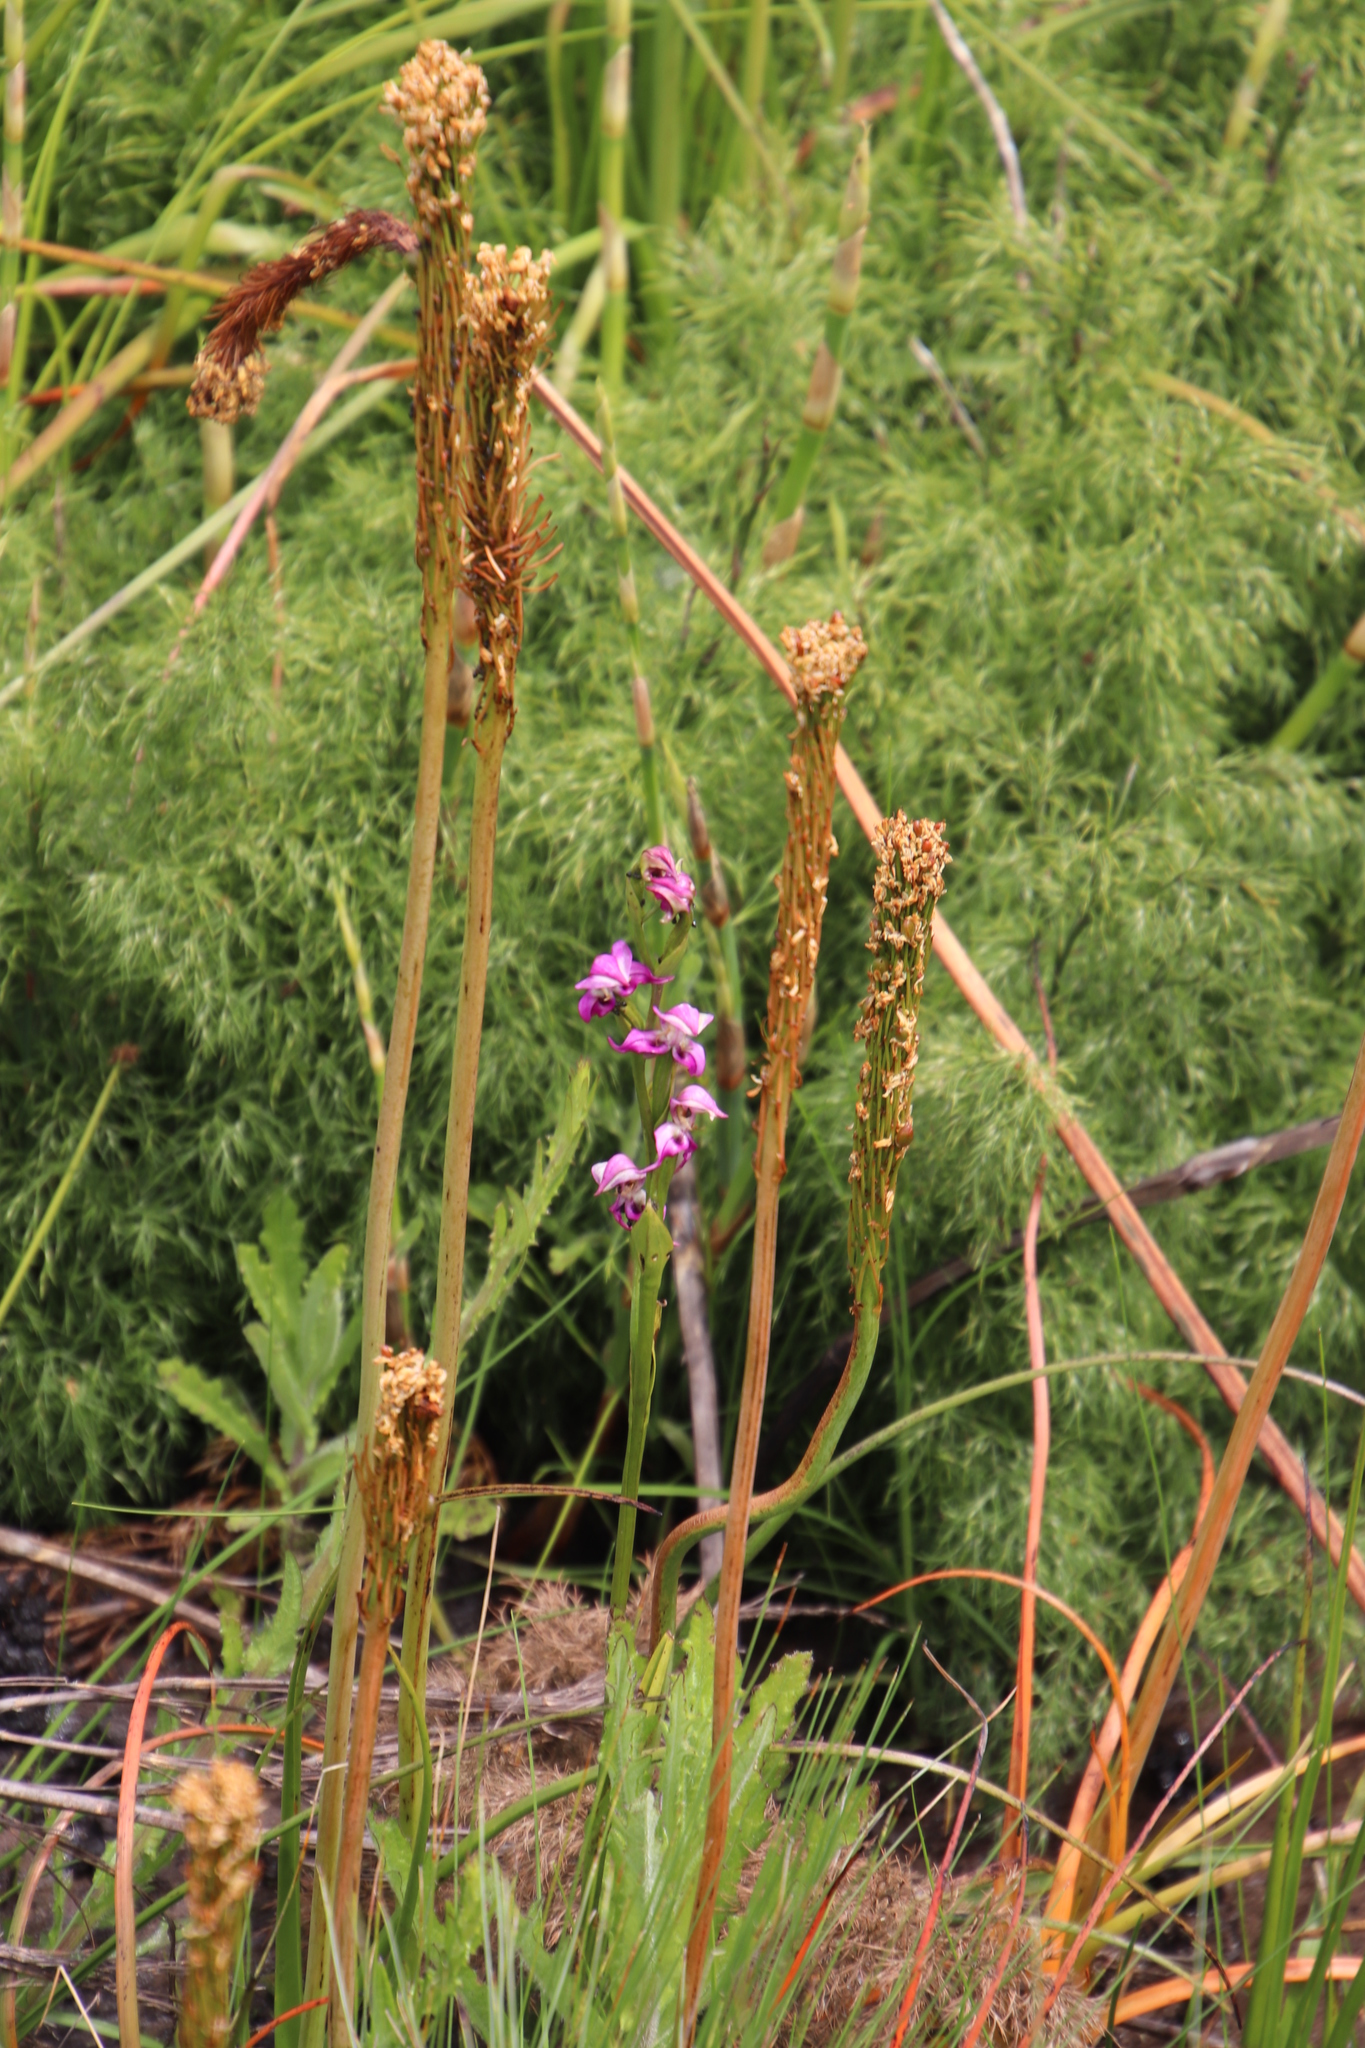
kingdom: Plantae
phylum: Tracheophyta
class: Liliopsida
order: Asparagales
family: Orchidaceae
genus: Disperis
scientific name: Disperis paludosa
